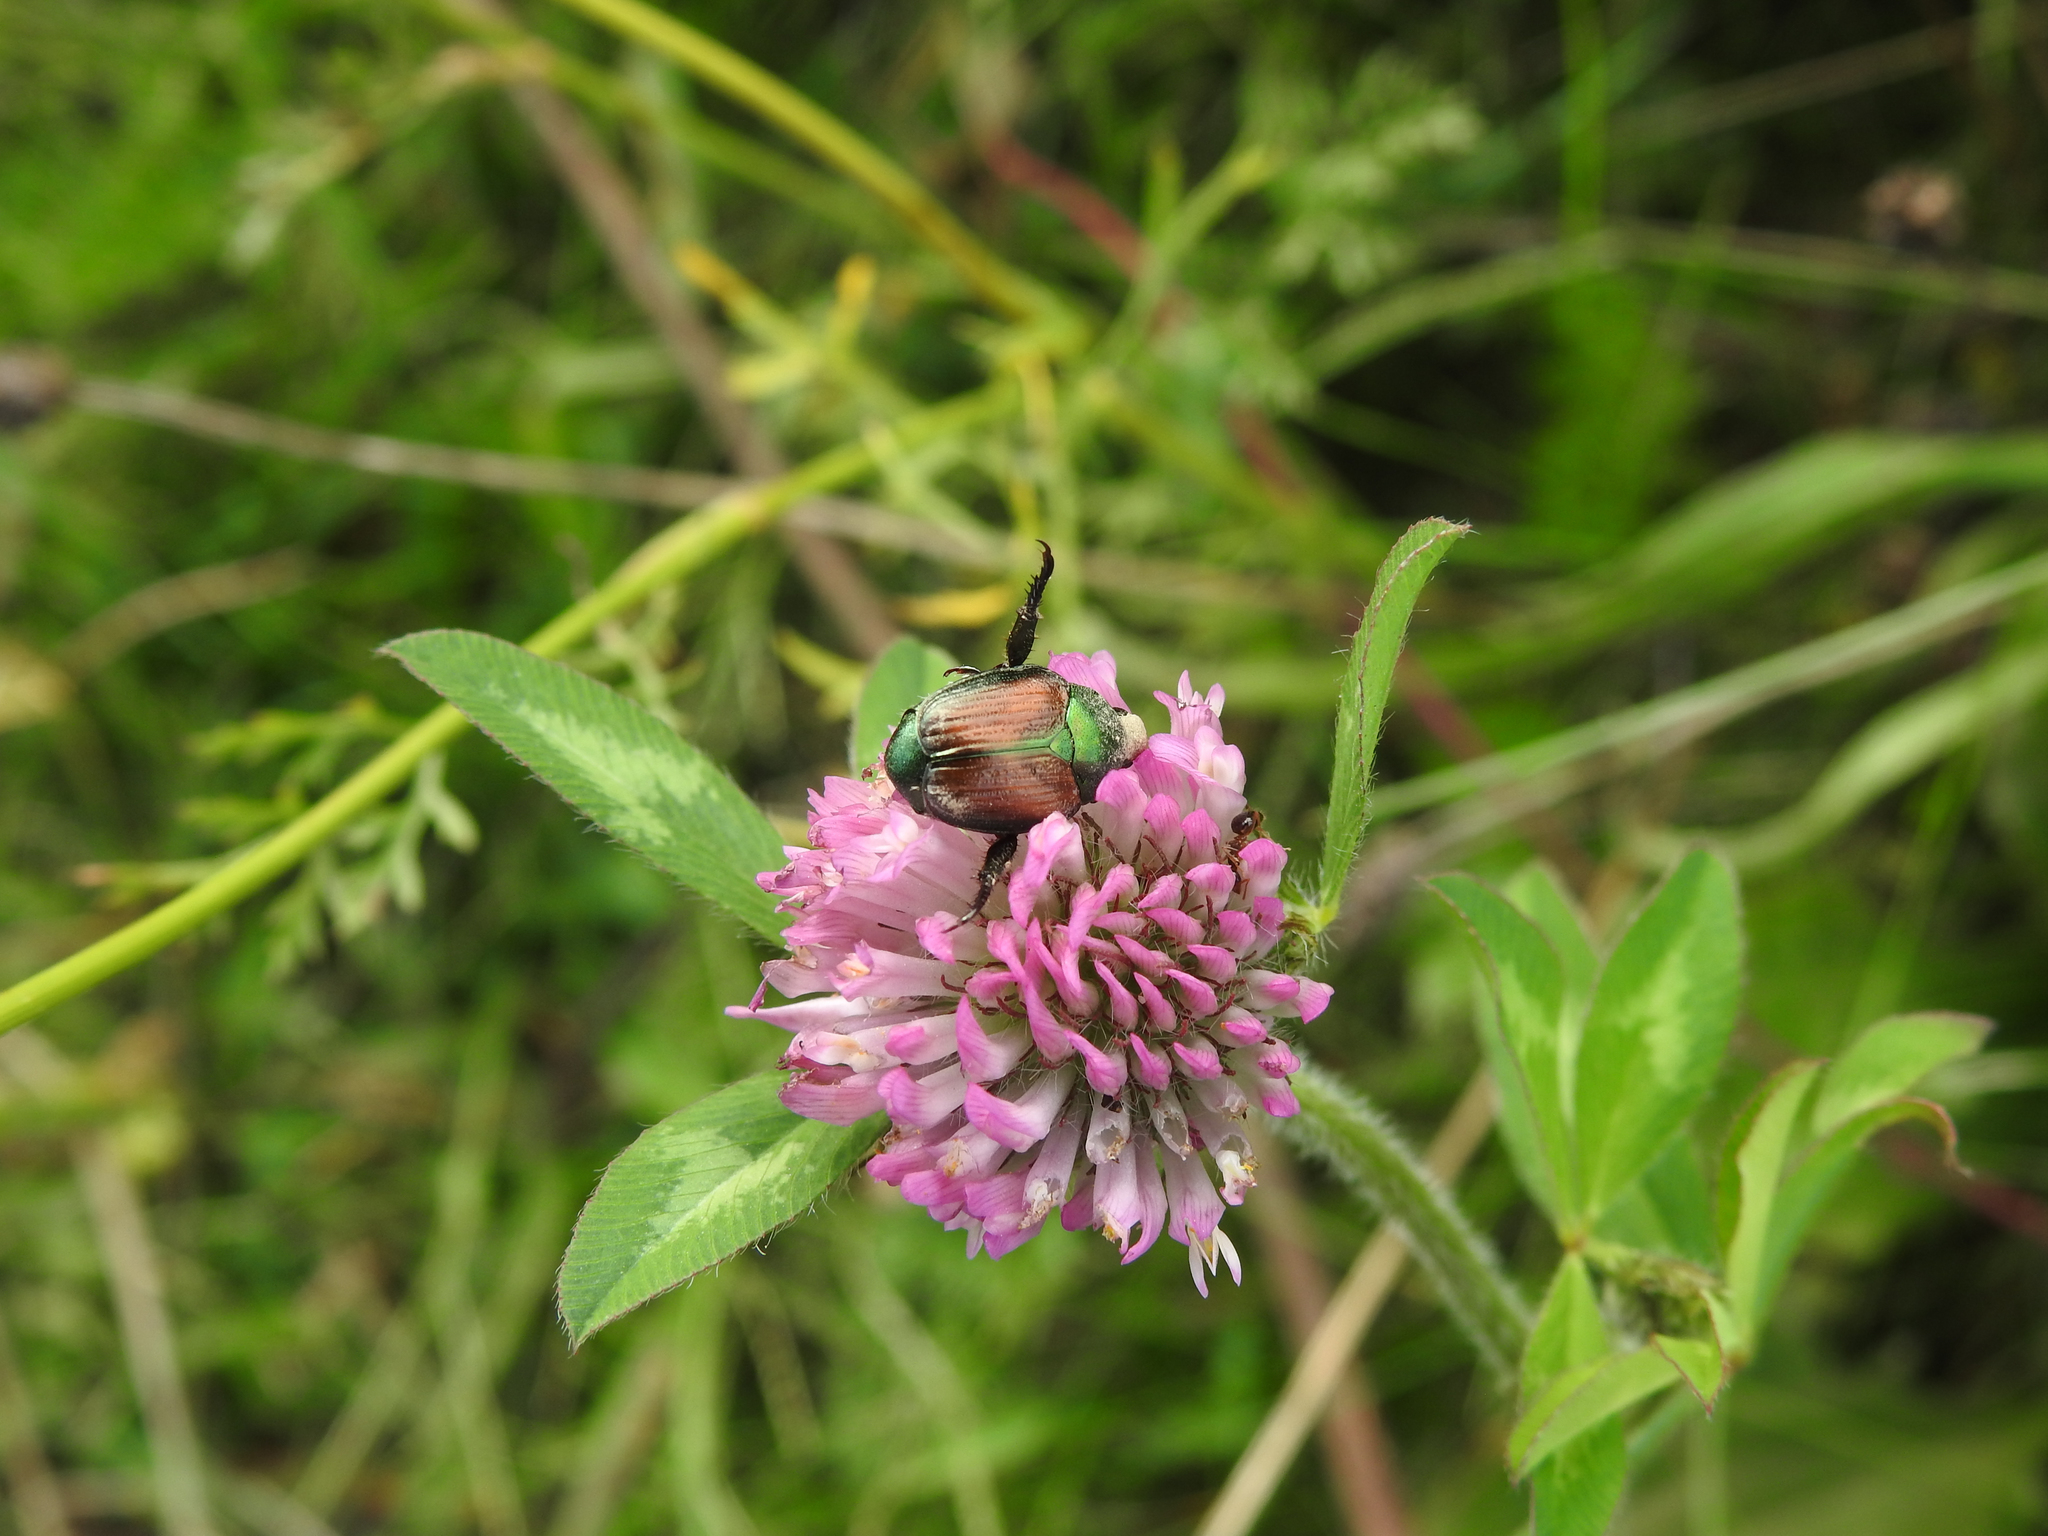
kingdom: Animalia
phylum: Arthropoda
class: Insecta
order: Coleoptera
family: Scarabaeidae
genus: Popillia
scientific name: Popillia japonica
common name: Japanese beetle
